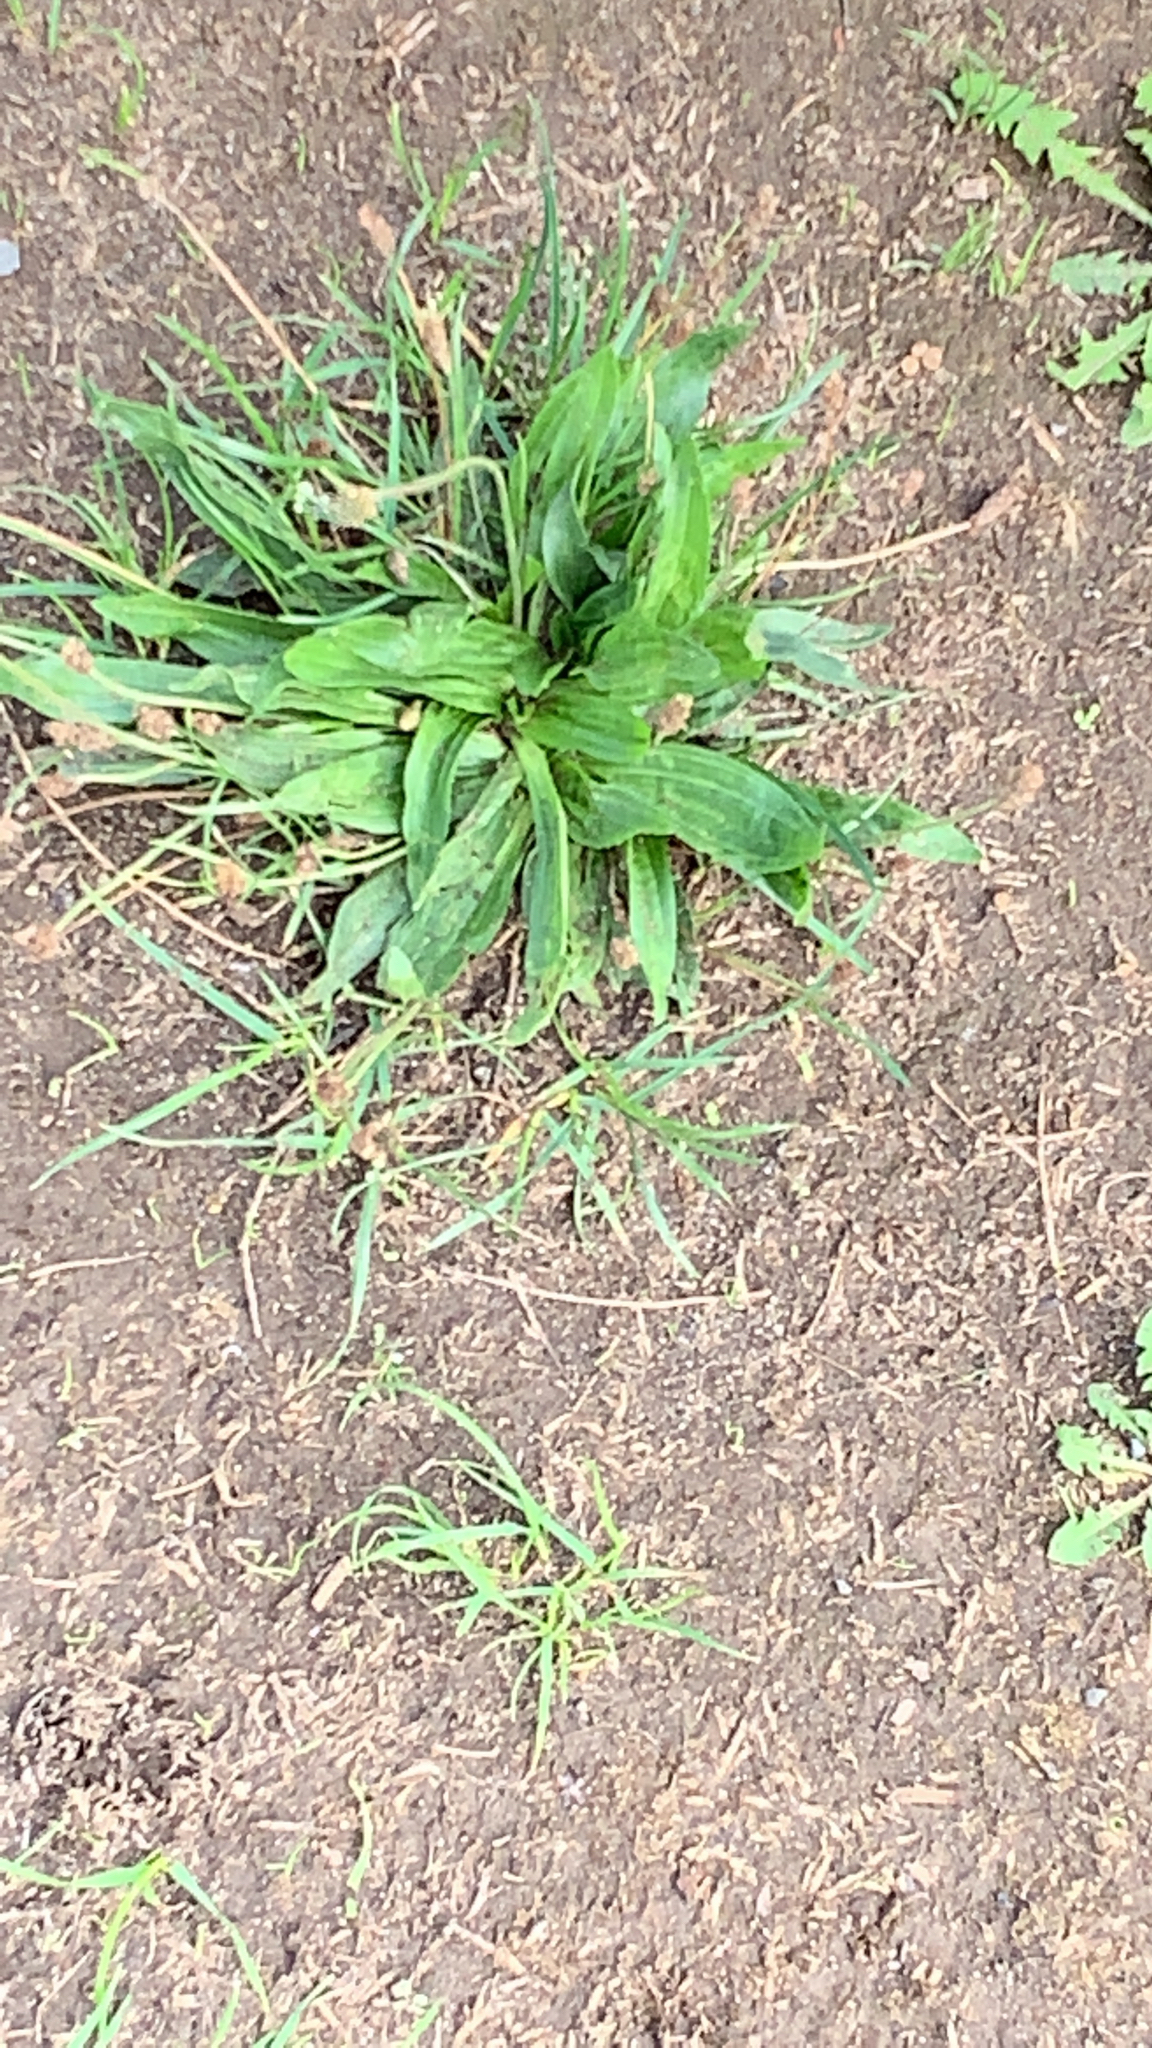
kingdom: Plantae
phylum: Tracheophyta
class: Magnoliopsida
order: Lamiales
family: Plantaginaceae
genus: Plantago
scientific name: Plantago lanceolata
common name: Ribwort plantain
